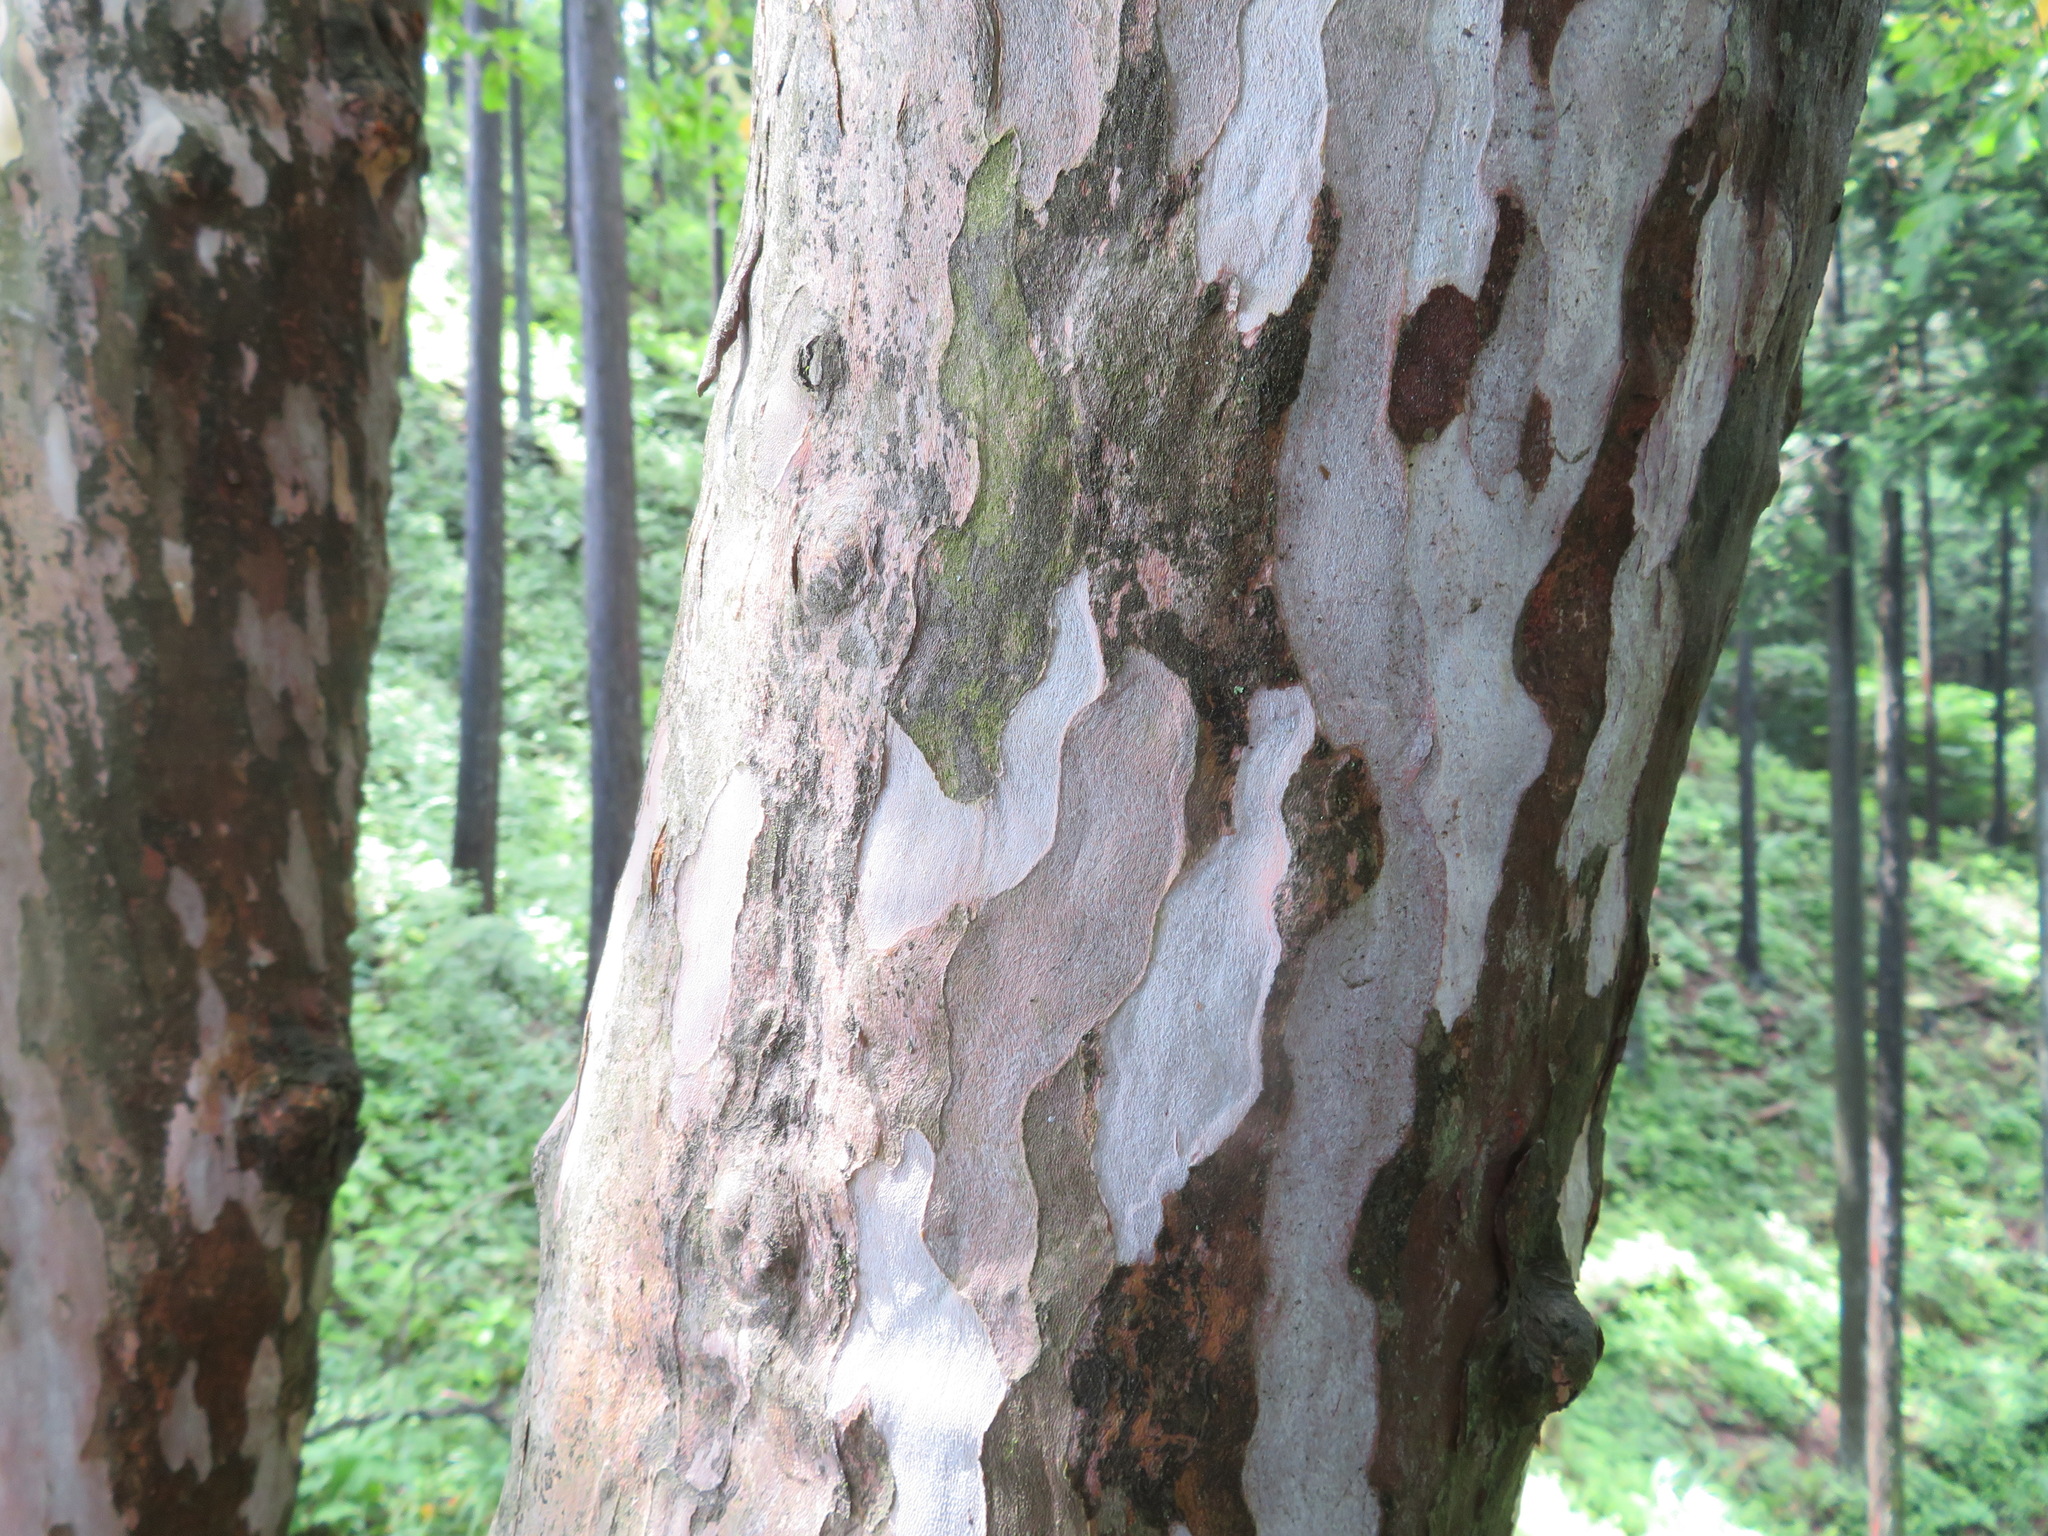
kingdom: Plantae
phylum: Tracheophyta
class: Magnoliopsida
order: Ericales
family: Clethraceae
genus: Clethra
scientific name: Clethra barbinervis
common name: Japanese clethra
